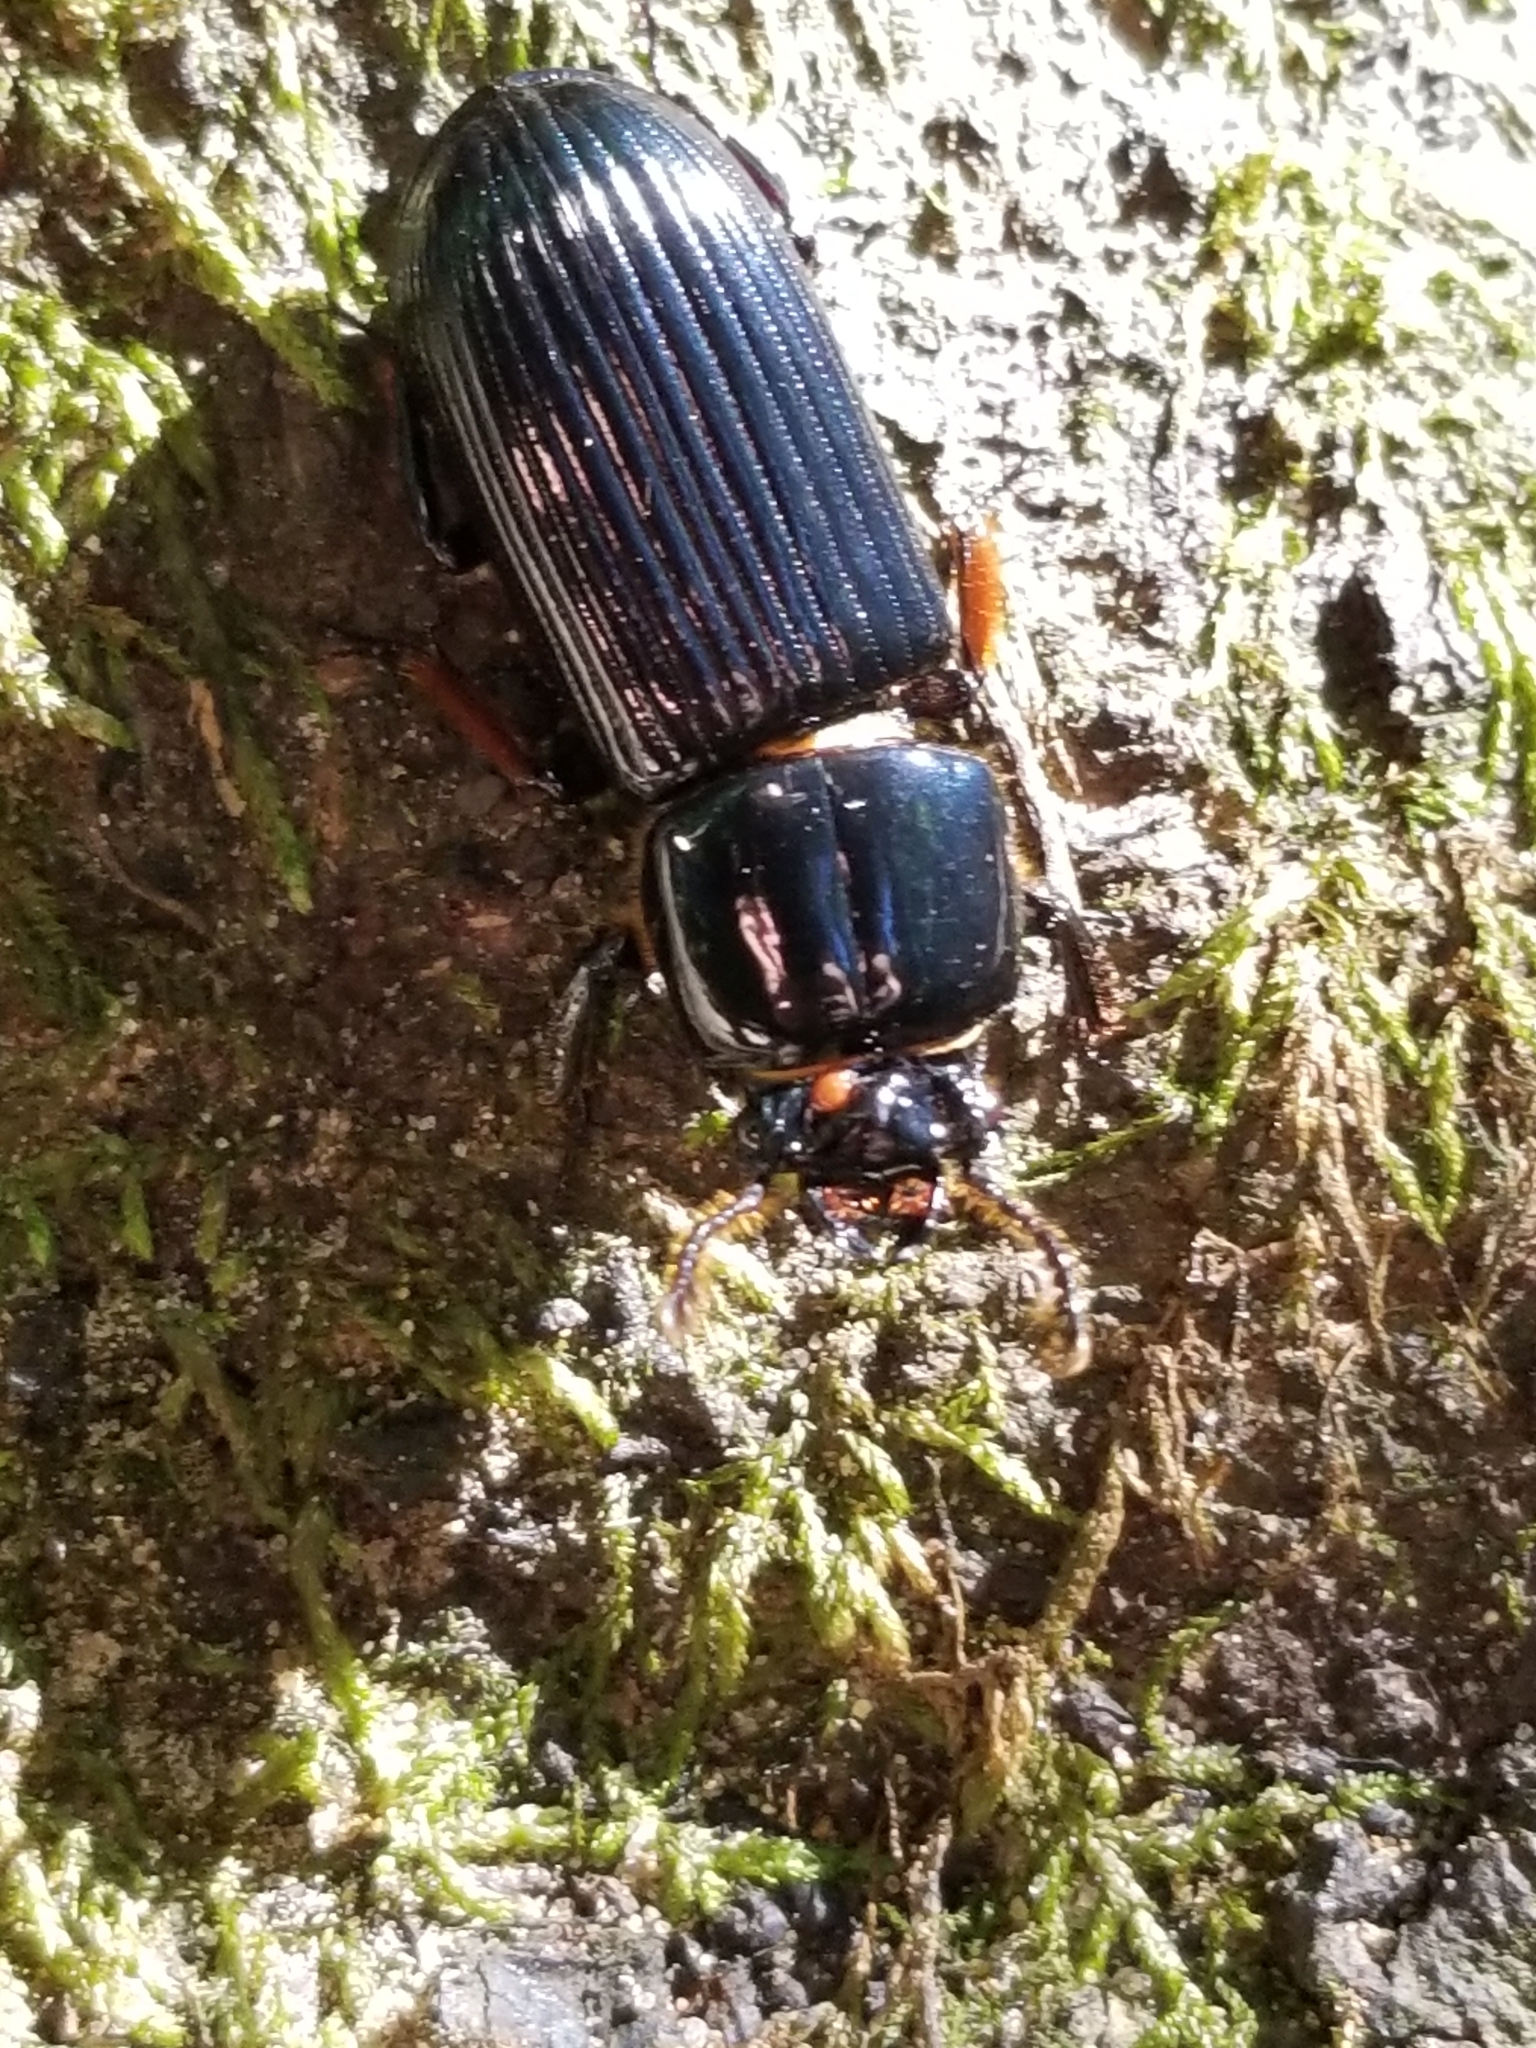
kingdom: Animalia
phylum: Arthropoda
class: Insecta
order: Coleoptera
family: Passalidae
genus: Odontotaenius
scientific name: Odontotaenius disjunctus
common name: Patent leather beetle
